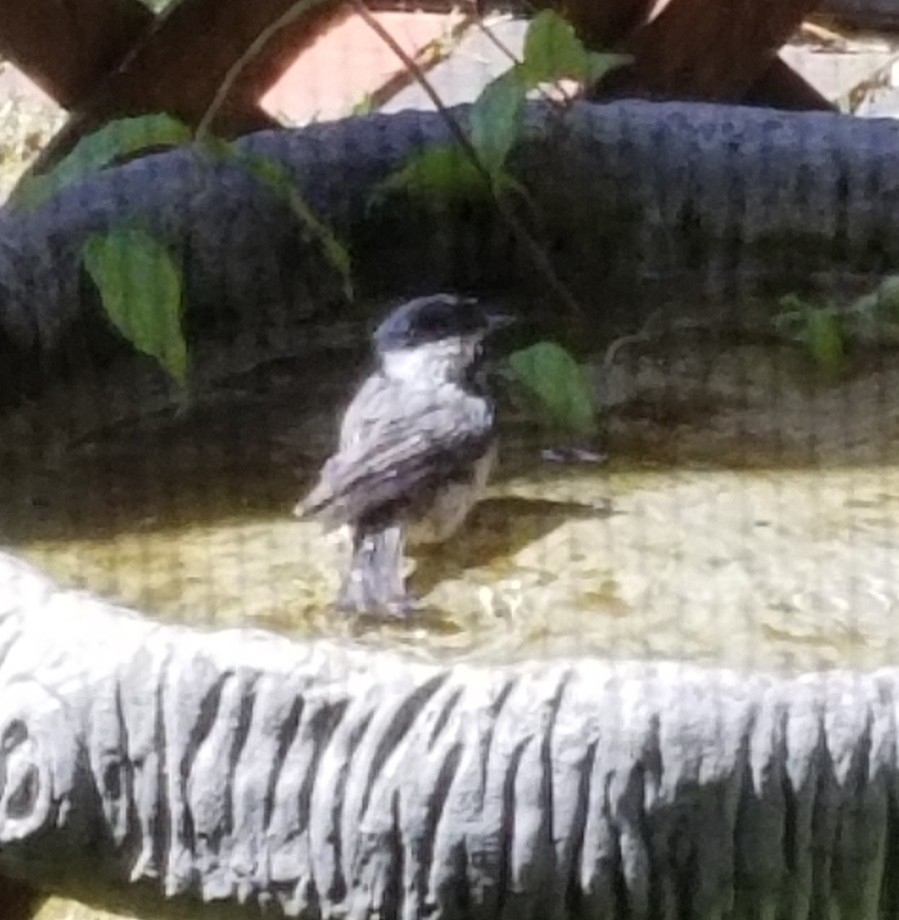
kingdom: Animalia
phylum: Chordata
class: Aves
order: Passeriformes
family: Paridae
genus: Poecile
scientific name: Poecile carolinensis
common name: Carolina chickadee
